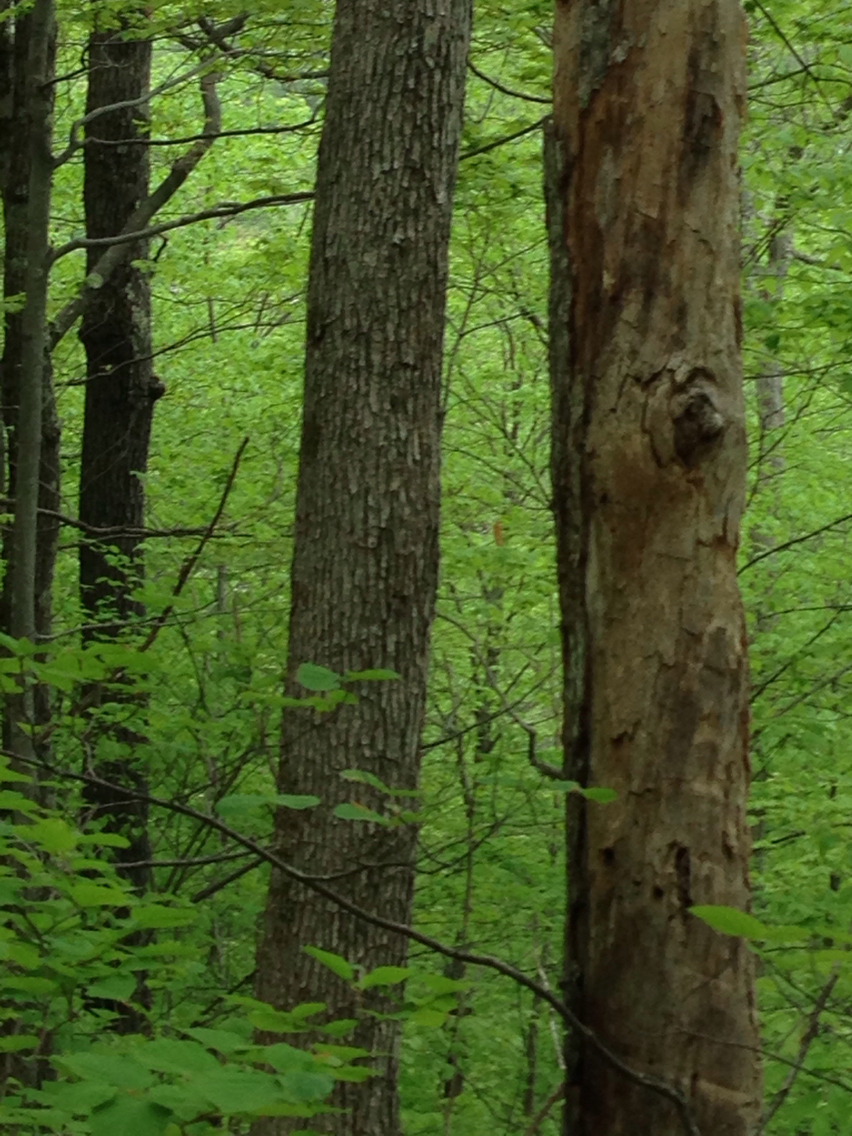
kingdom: Plantae
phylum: Tracheophyta
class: Magnoliopsida
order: Fagales
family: Fagaceae
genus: Quercus
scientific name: Quercus alba
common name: White oak
